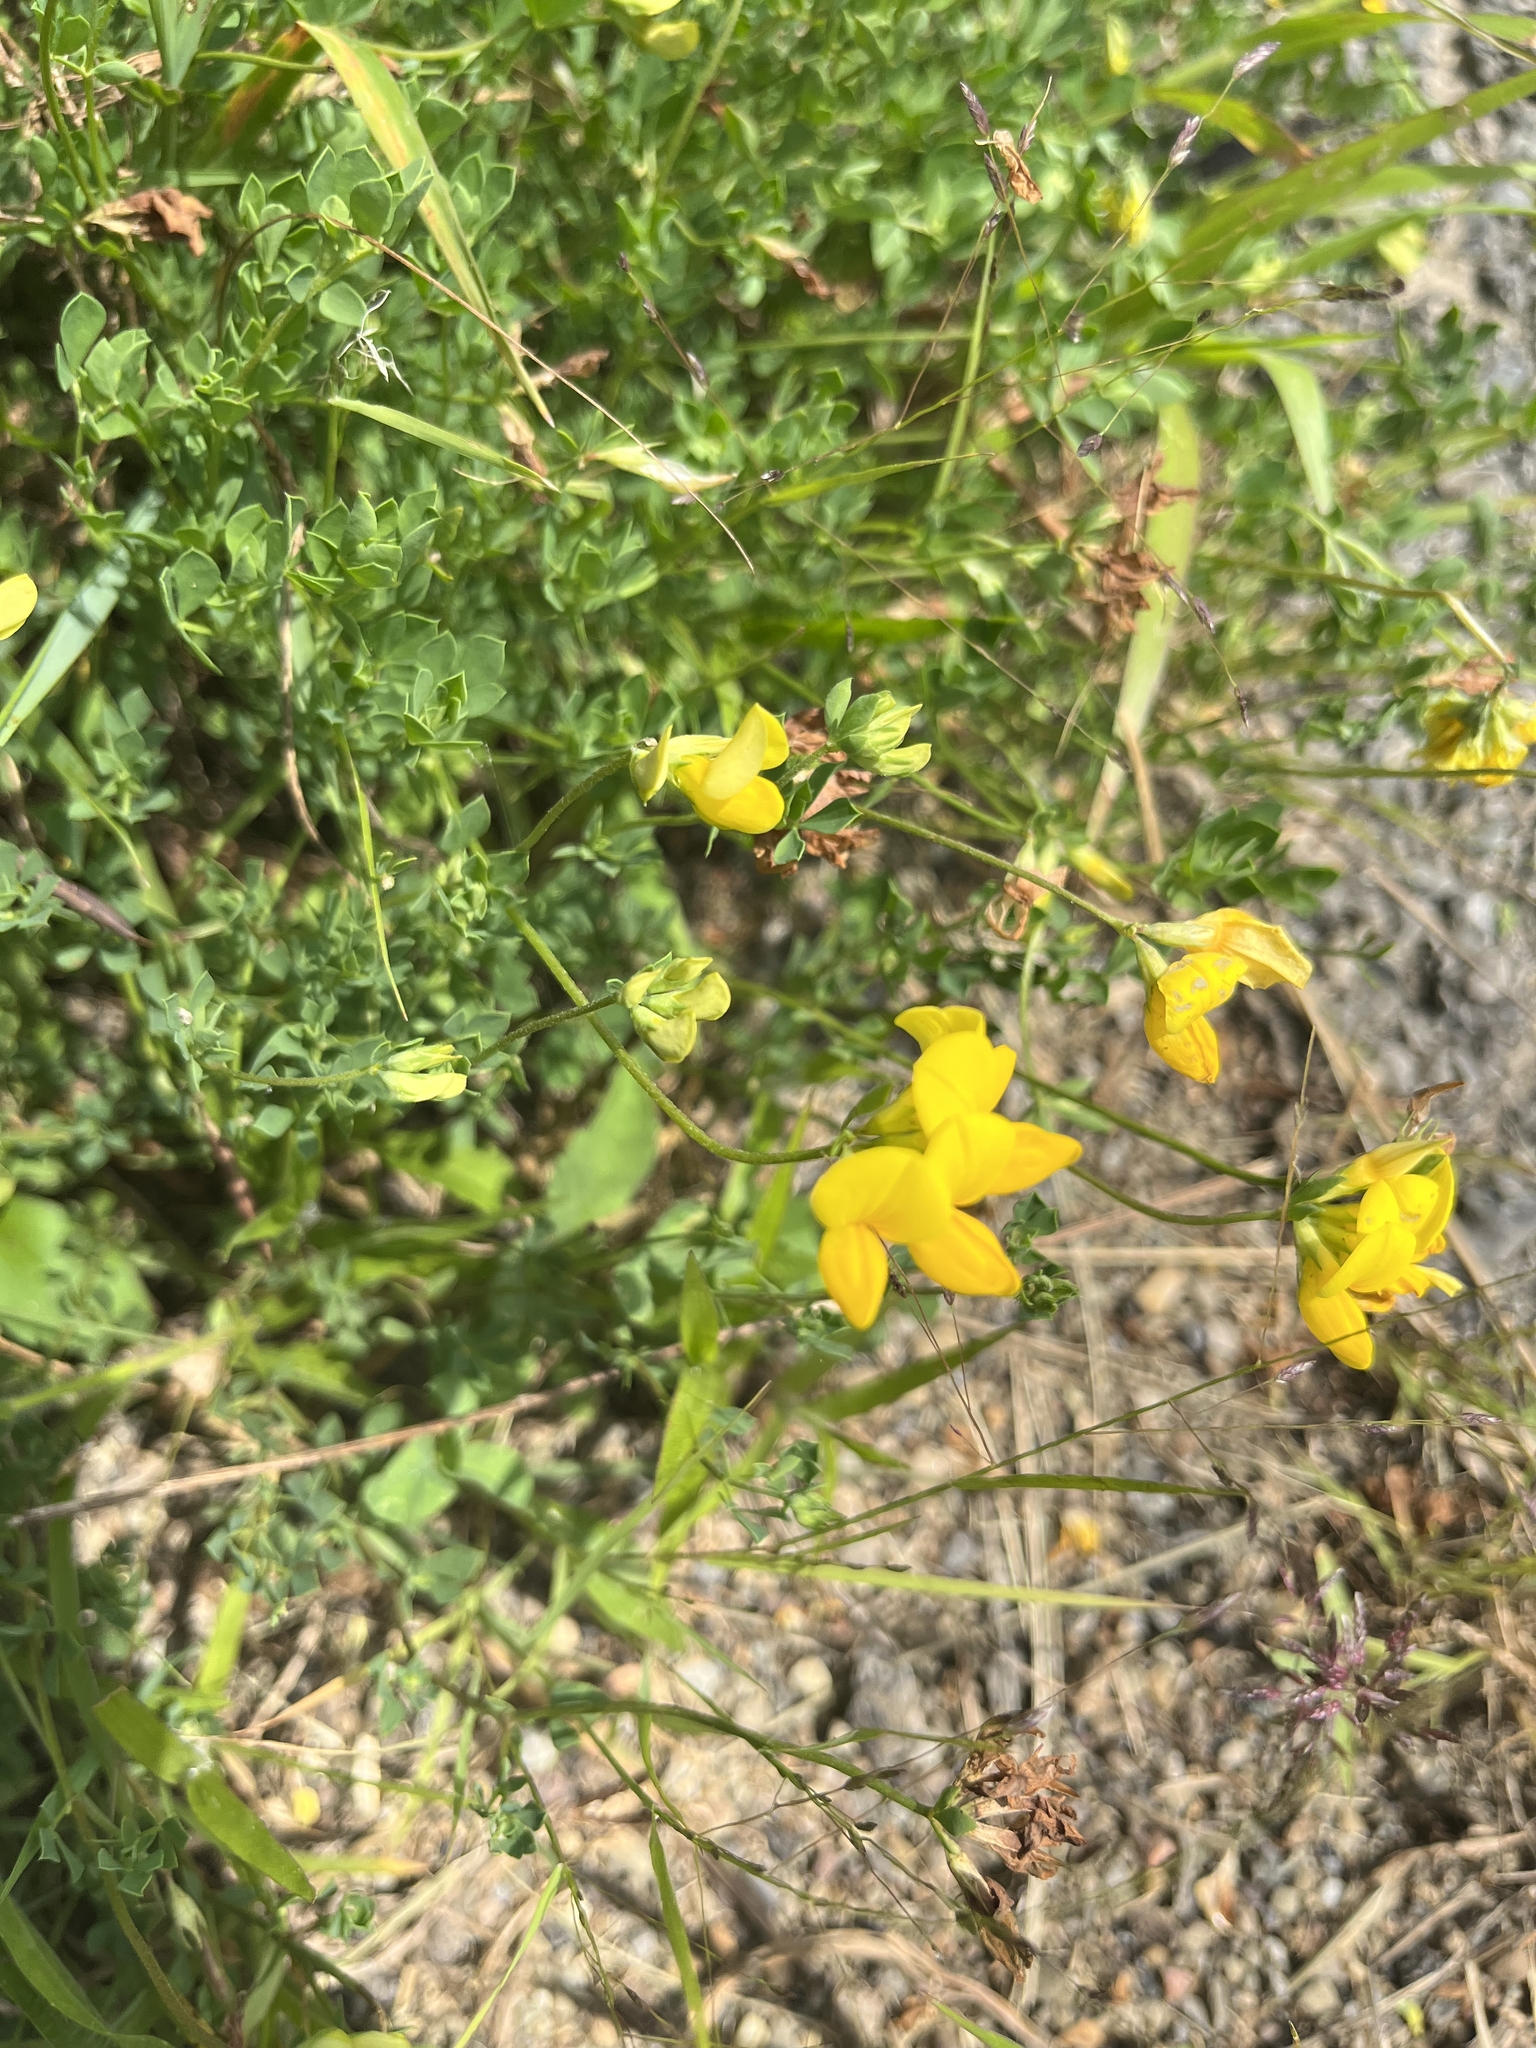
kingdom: Plantae
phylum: Tracheophyta
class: Magnoliopsida
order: Fabales
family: Fabaceae
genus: Lotus
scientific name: Lotus corniculatus
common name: Common bird's-foot-trefoil
